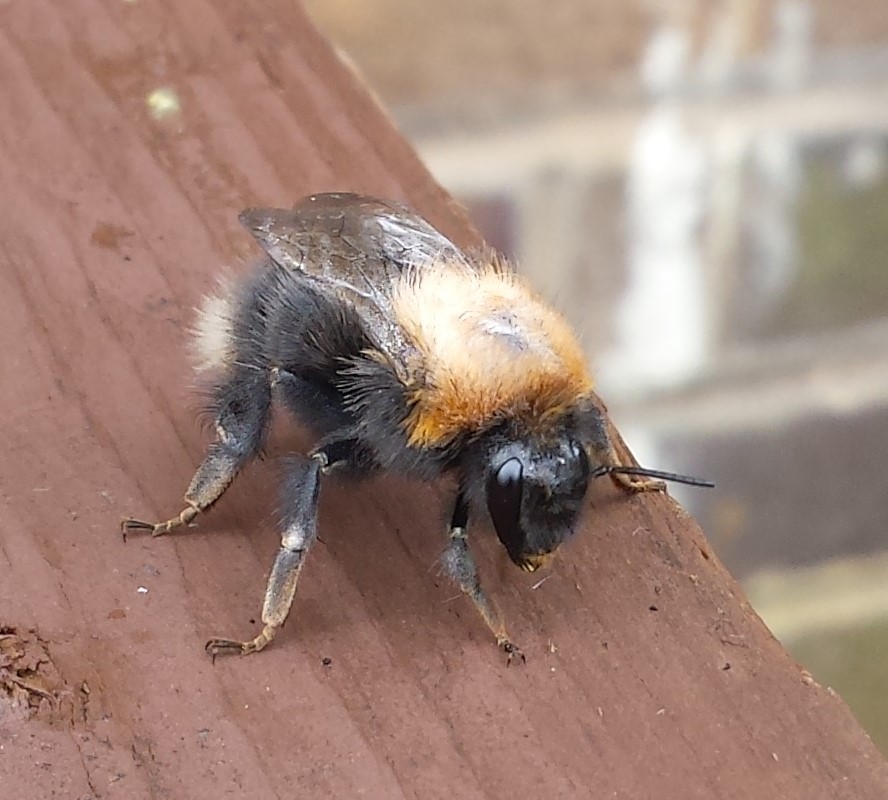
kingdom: Animalia
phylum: Arthropoda
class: Insecta
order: Hymenoptera
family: Apidae
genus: Bombus
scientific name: Bombus hypnorum
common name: New garden bumblebee
